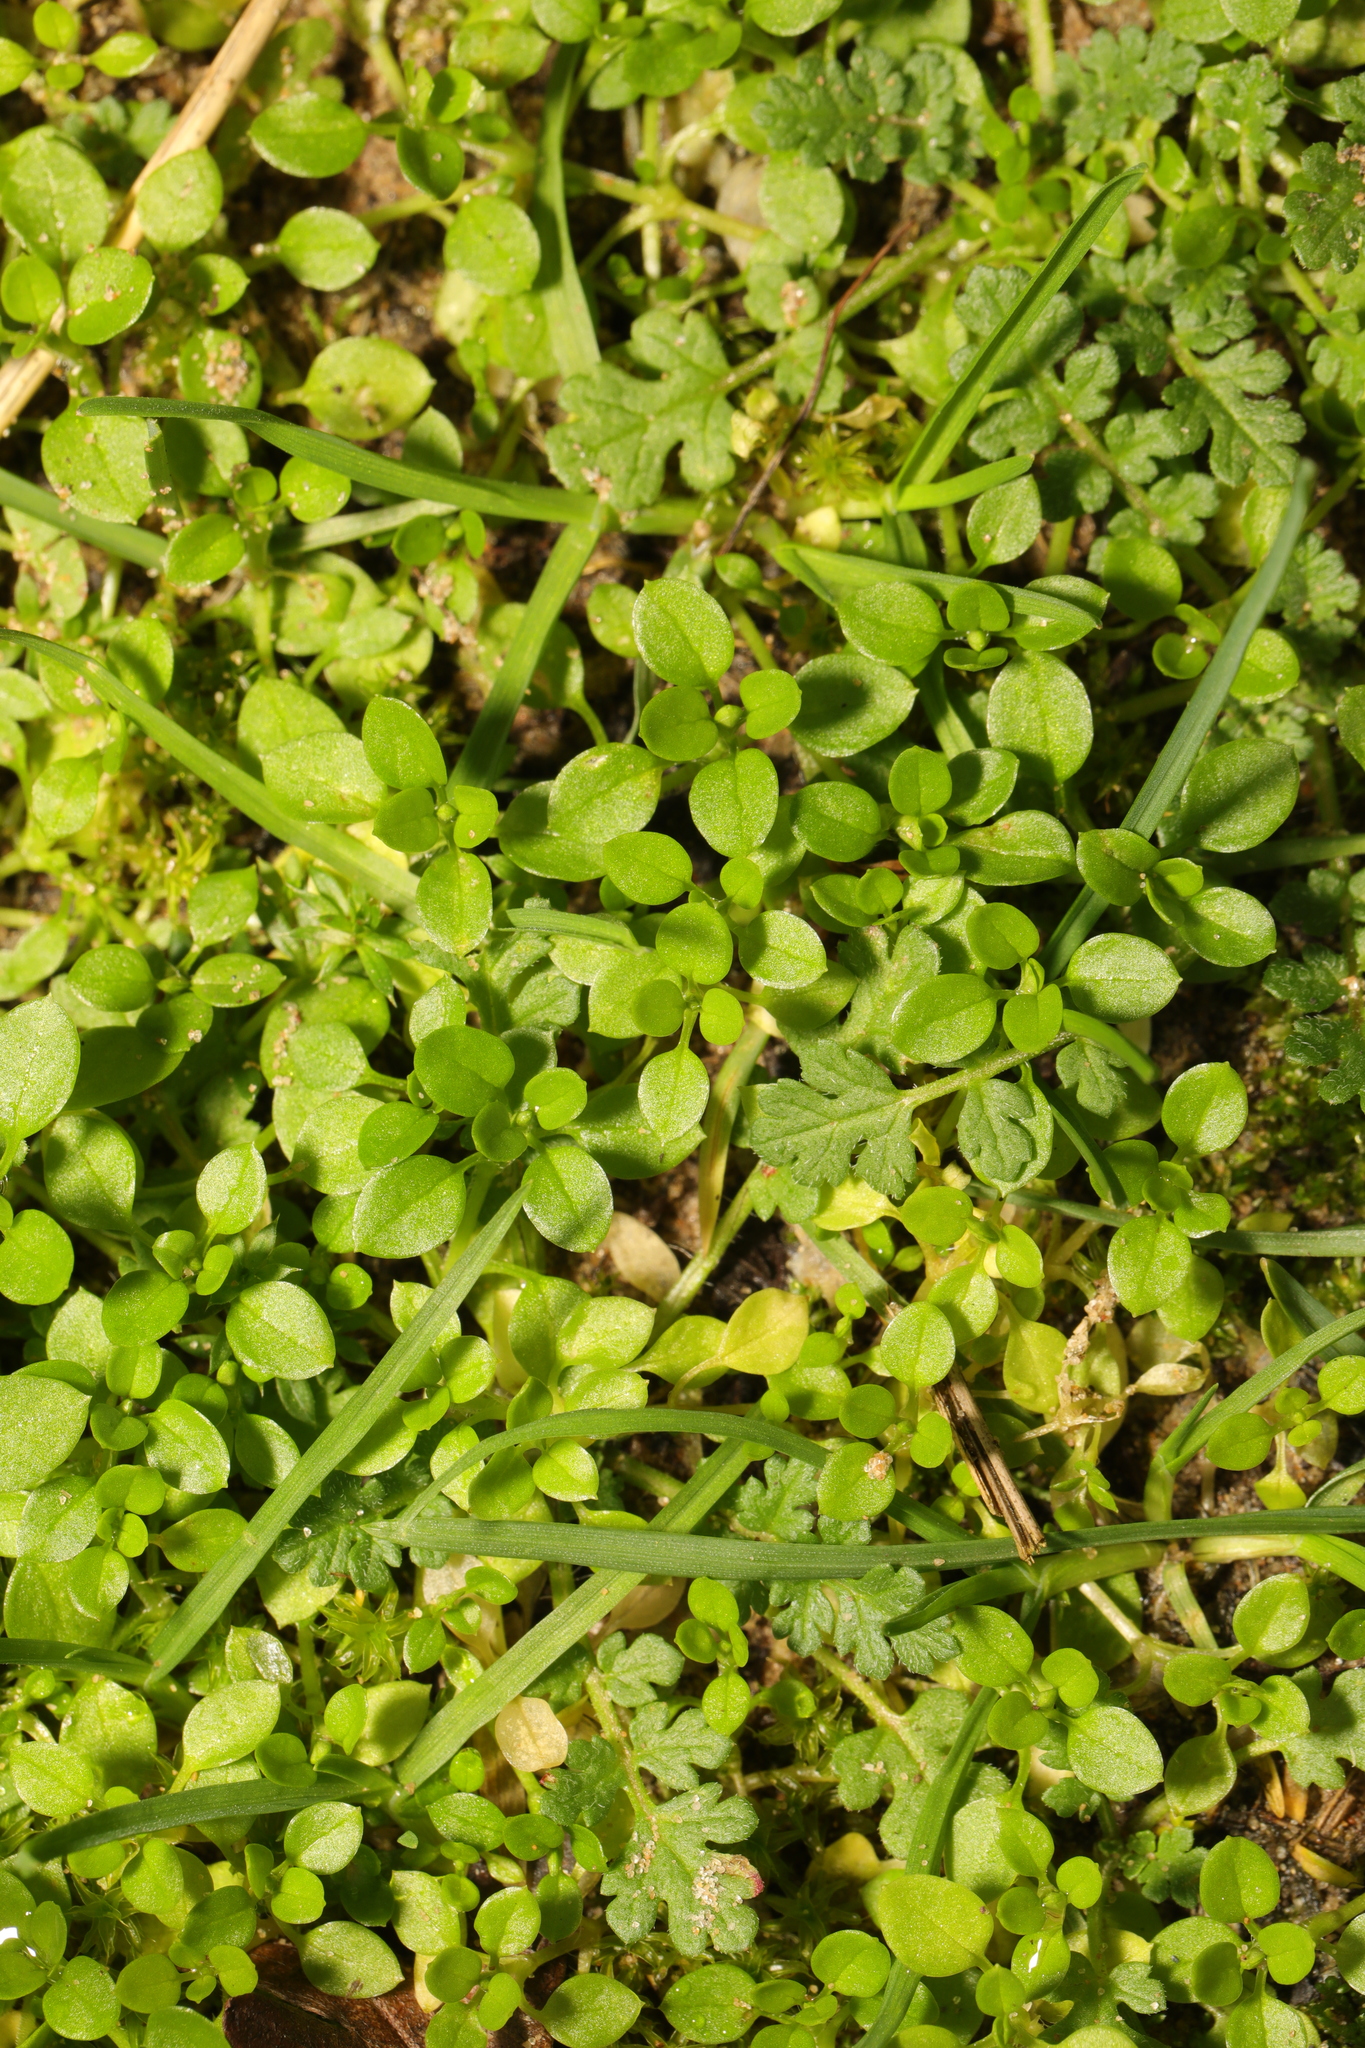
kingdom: Plantae
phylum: Tracheophyta
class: Magnoliopsida
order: Caryophyllales
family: Caryophyllaceae
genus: Stellaria
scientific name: Stellaria media
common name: Common chickweed
